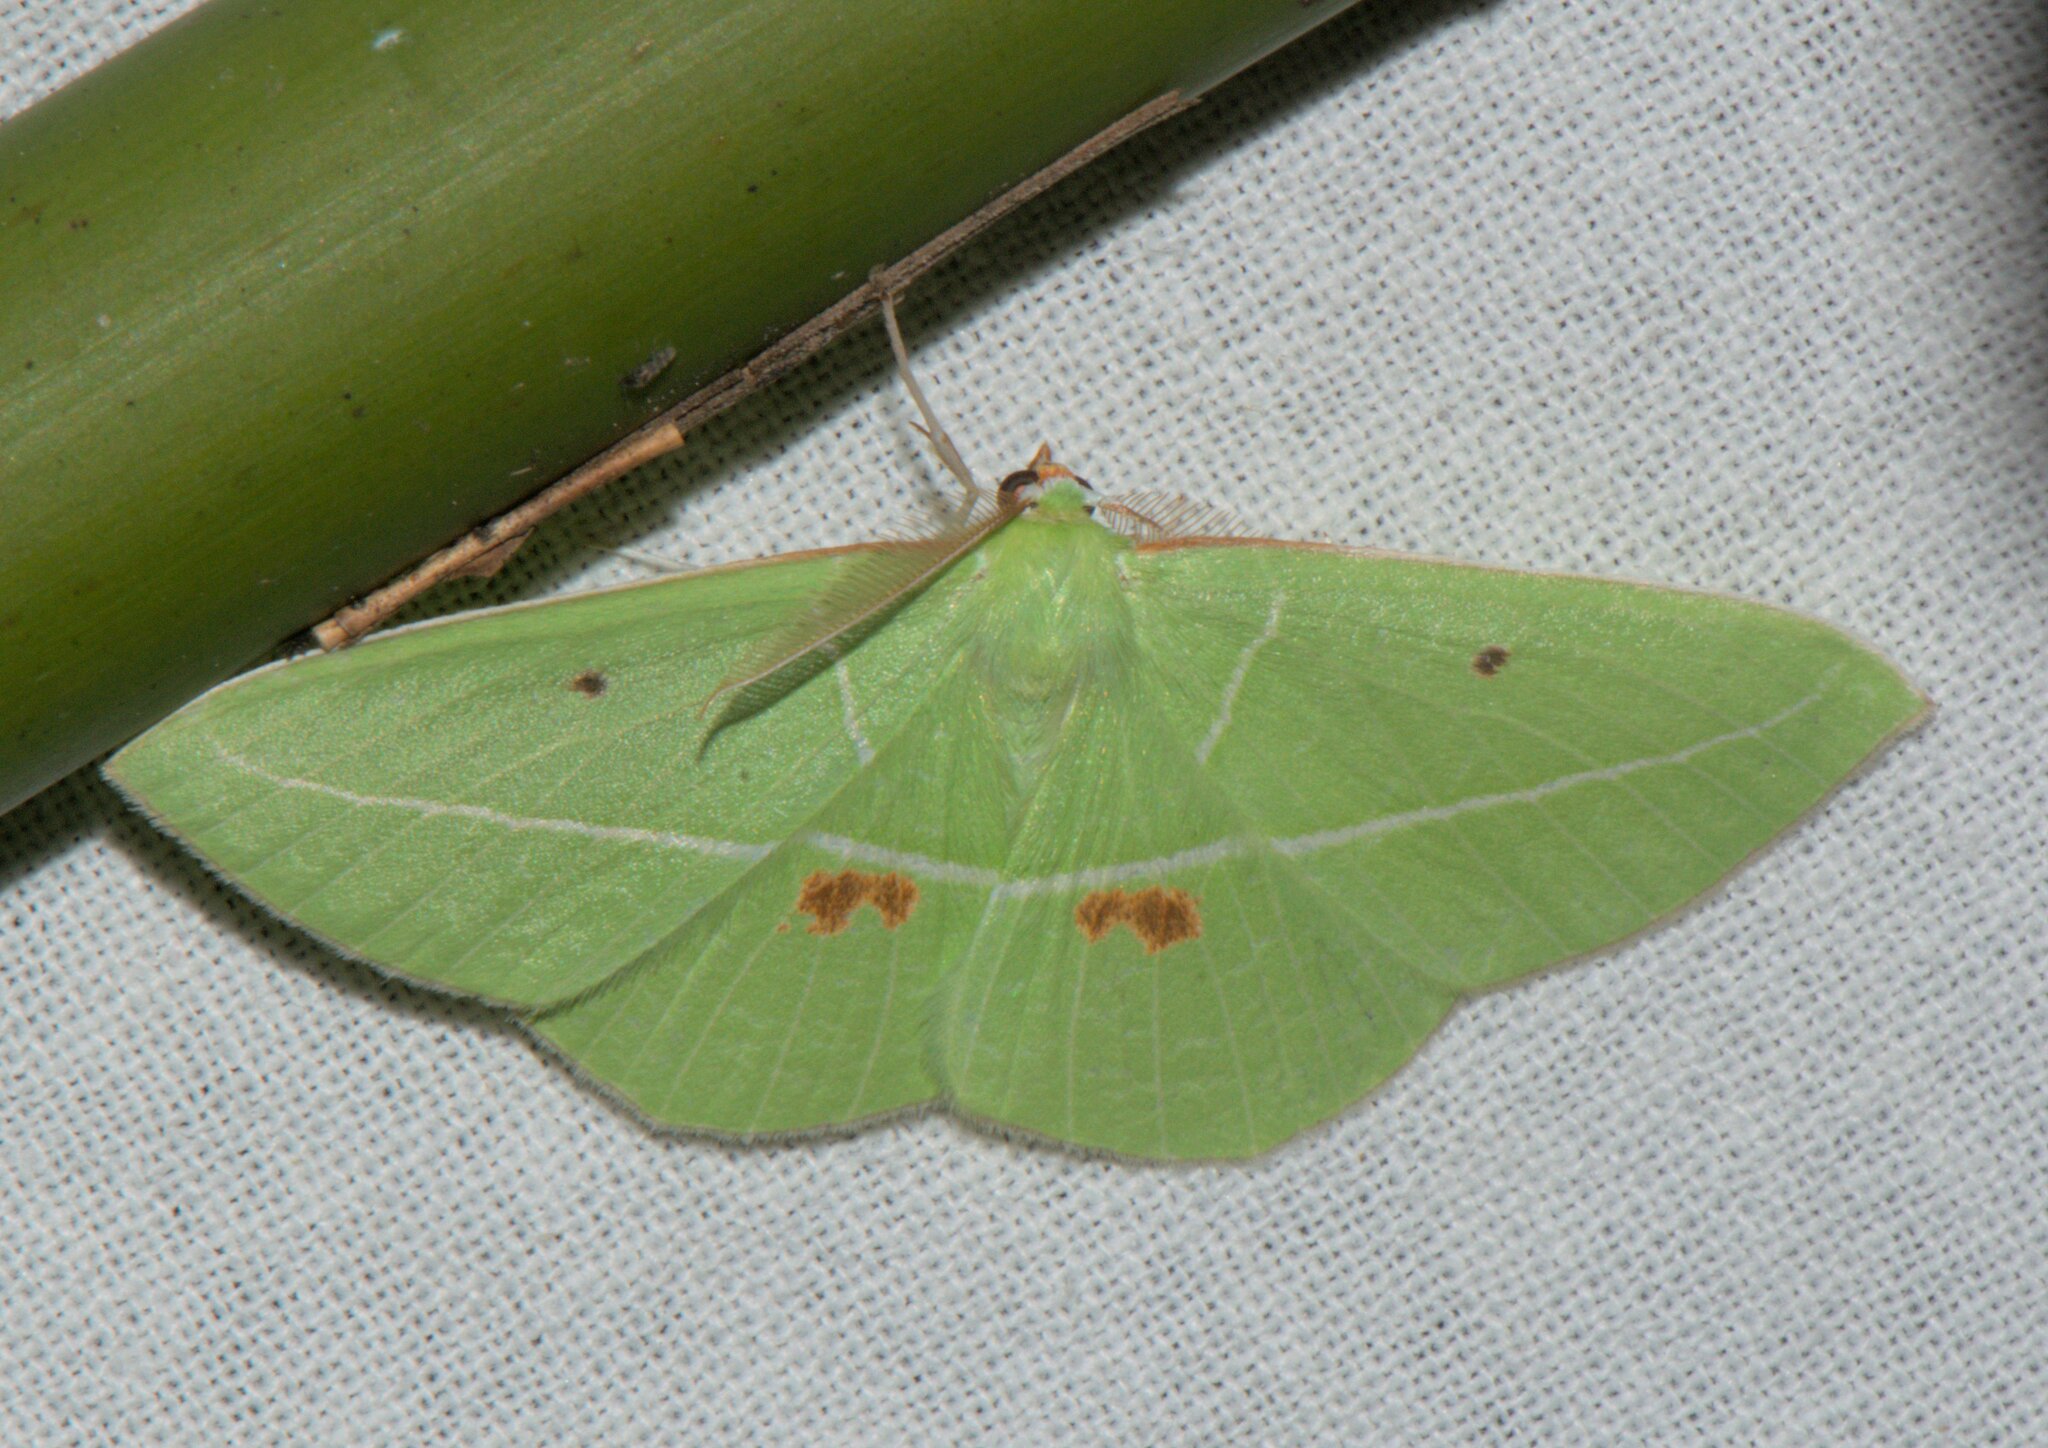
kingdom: Animalia
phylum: Arthropoda
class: Insecta
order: Lepidoptera
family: Geometridae
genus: Tanaoctenia
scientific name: Tanaoctenia haliaria
